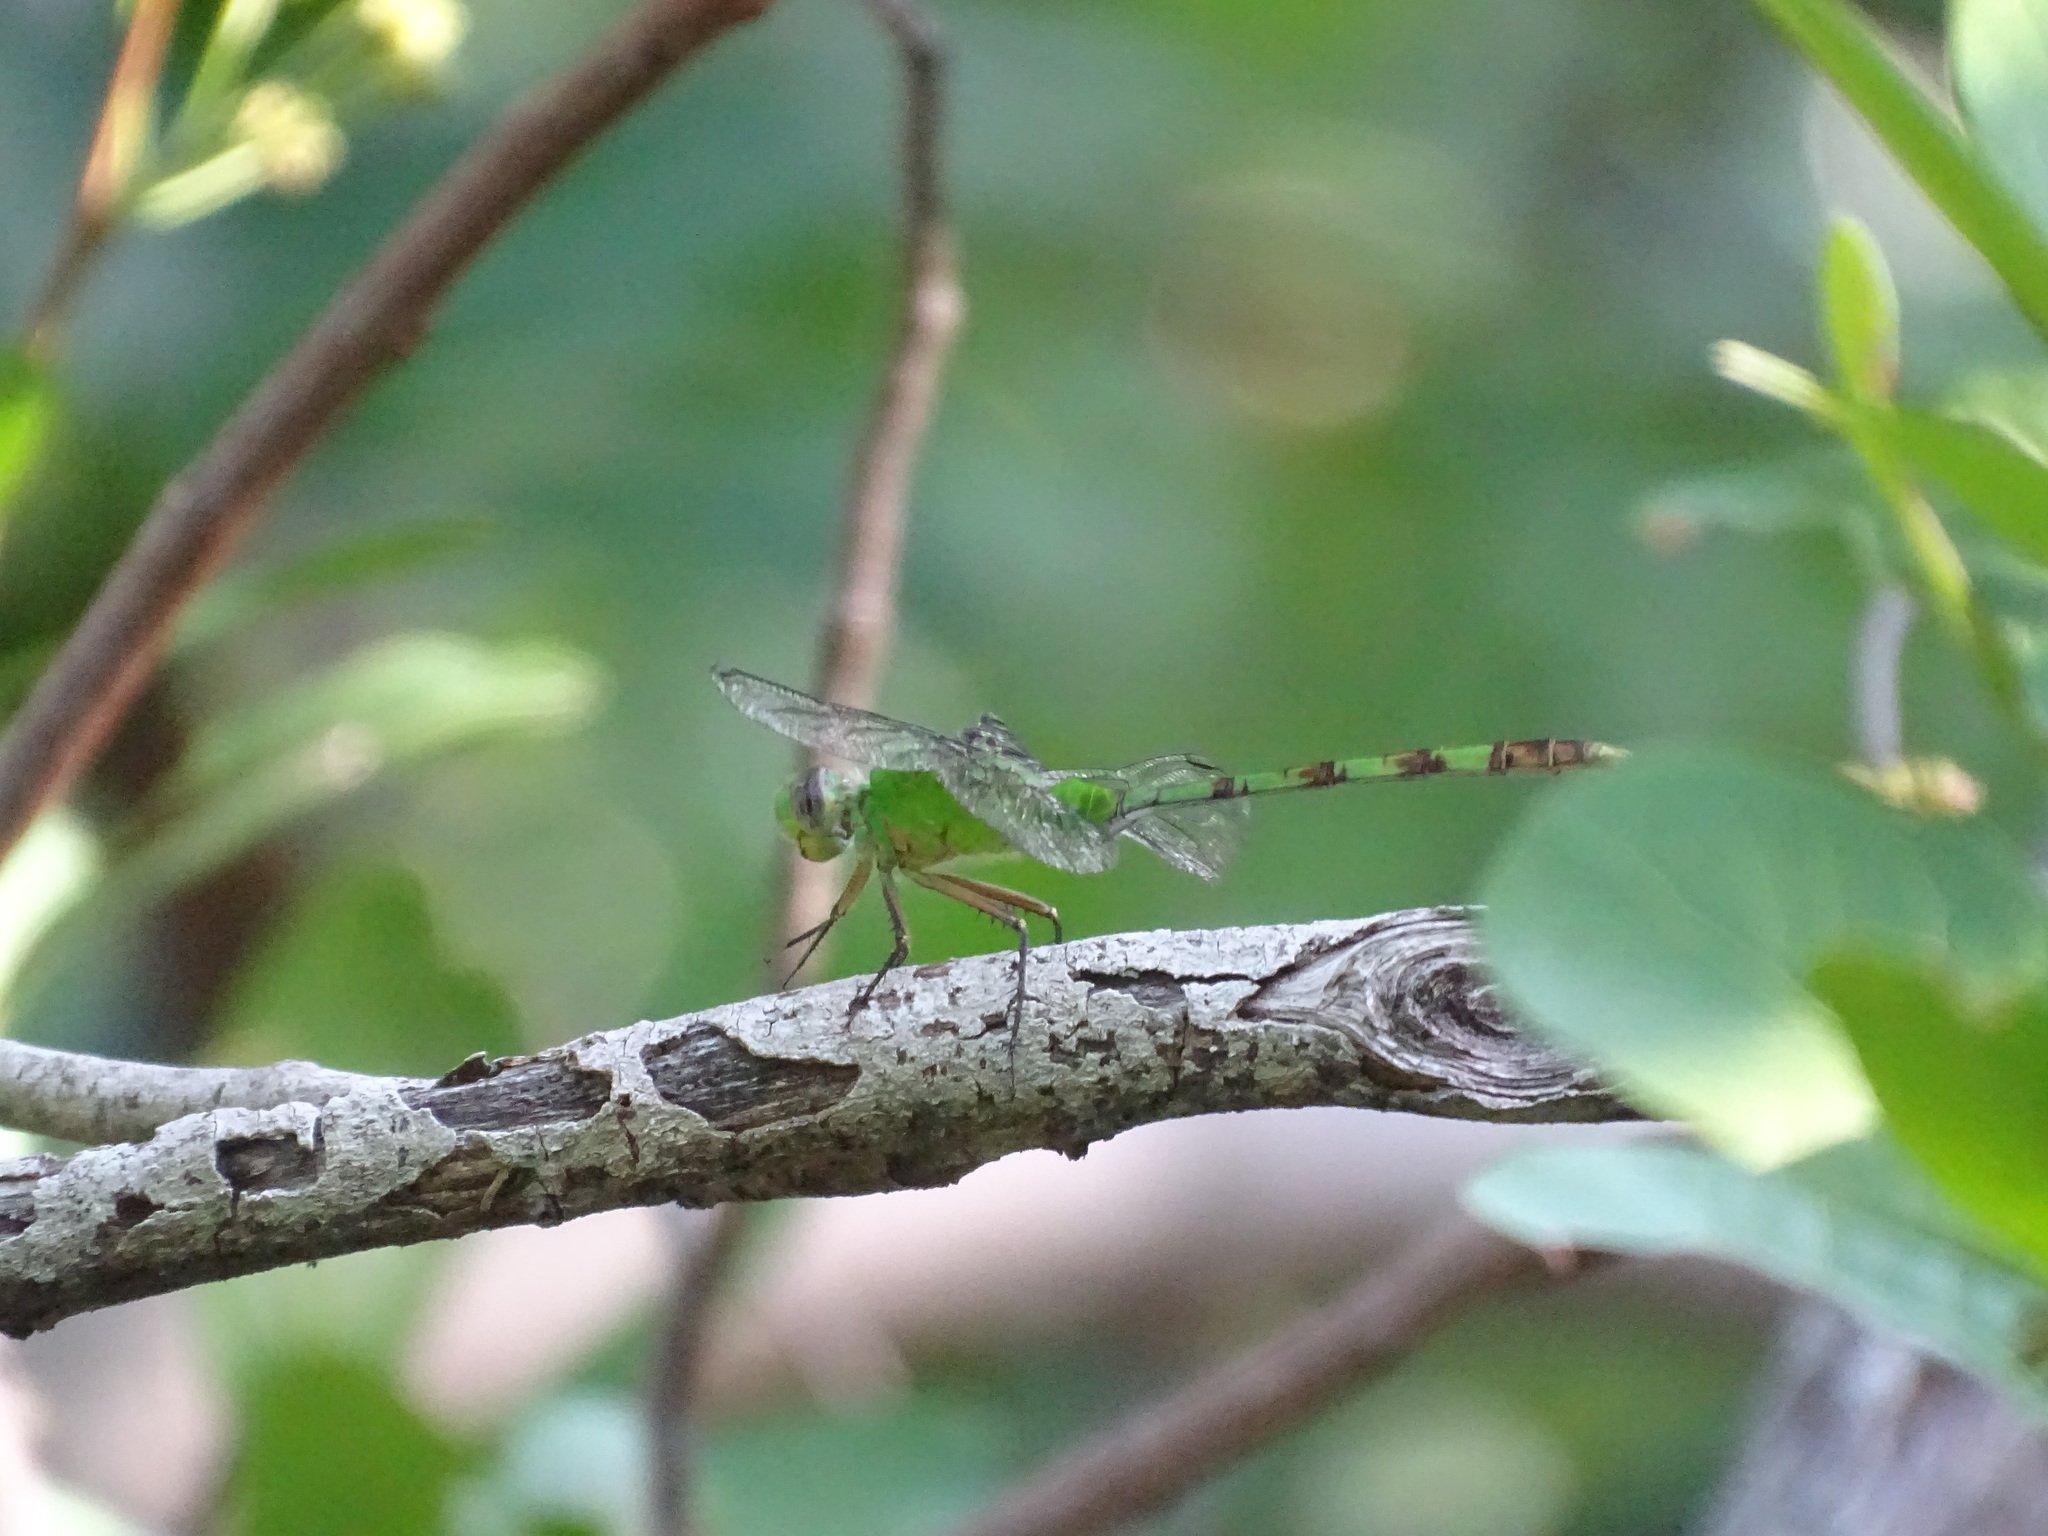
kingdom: Animalia
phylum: Arthropoda
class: Insecta
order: Odonata
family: Libellulidae
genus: Erythemis
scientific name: Erythemis vesiculosa
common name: Great pondhawk
